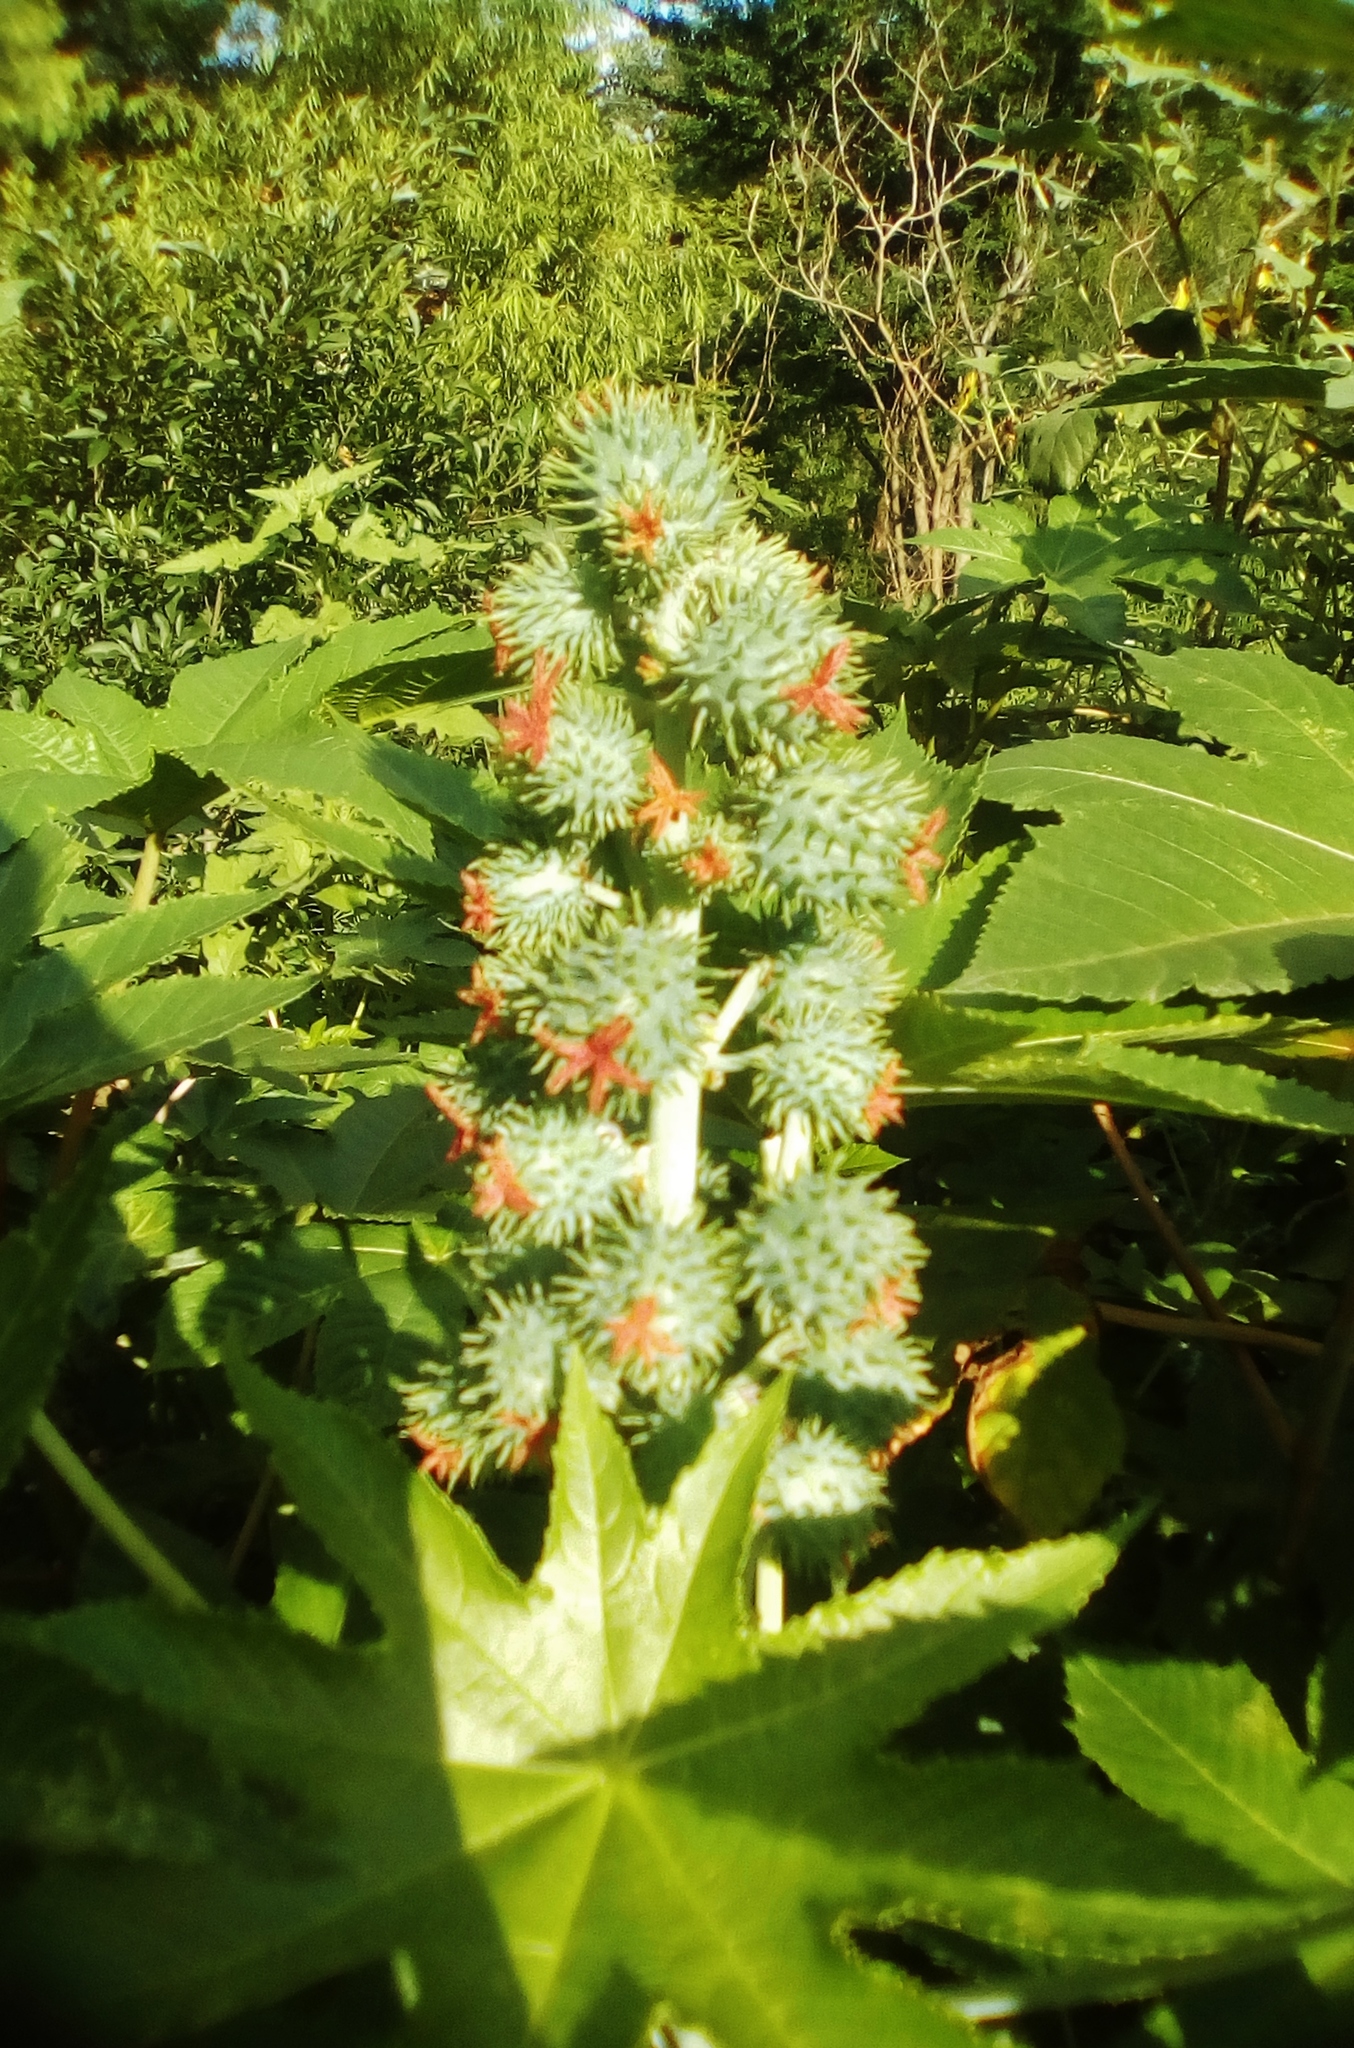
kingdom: Plantae
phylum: Tracheophyta
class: Magnoliopsida
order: Malpighiales
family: Euphorbiaceae
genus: Ricinus
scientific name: Ricinus communis
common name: Castor-oil-plant
